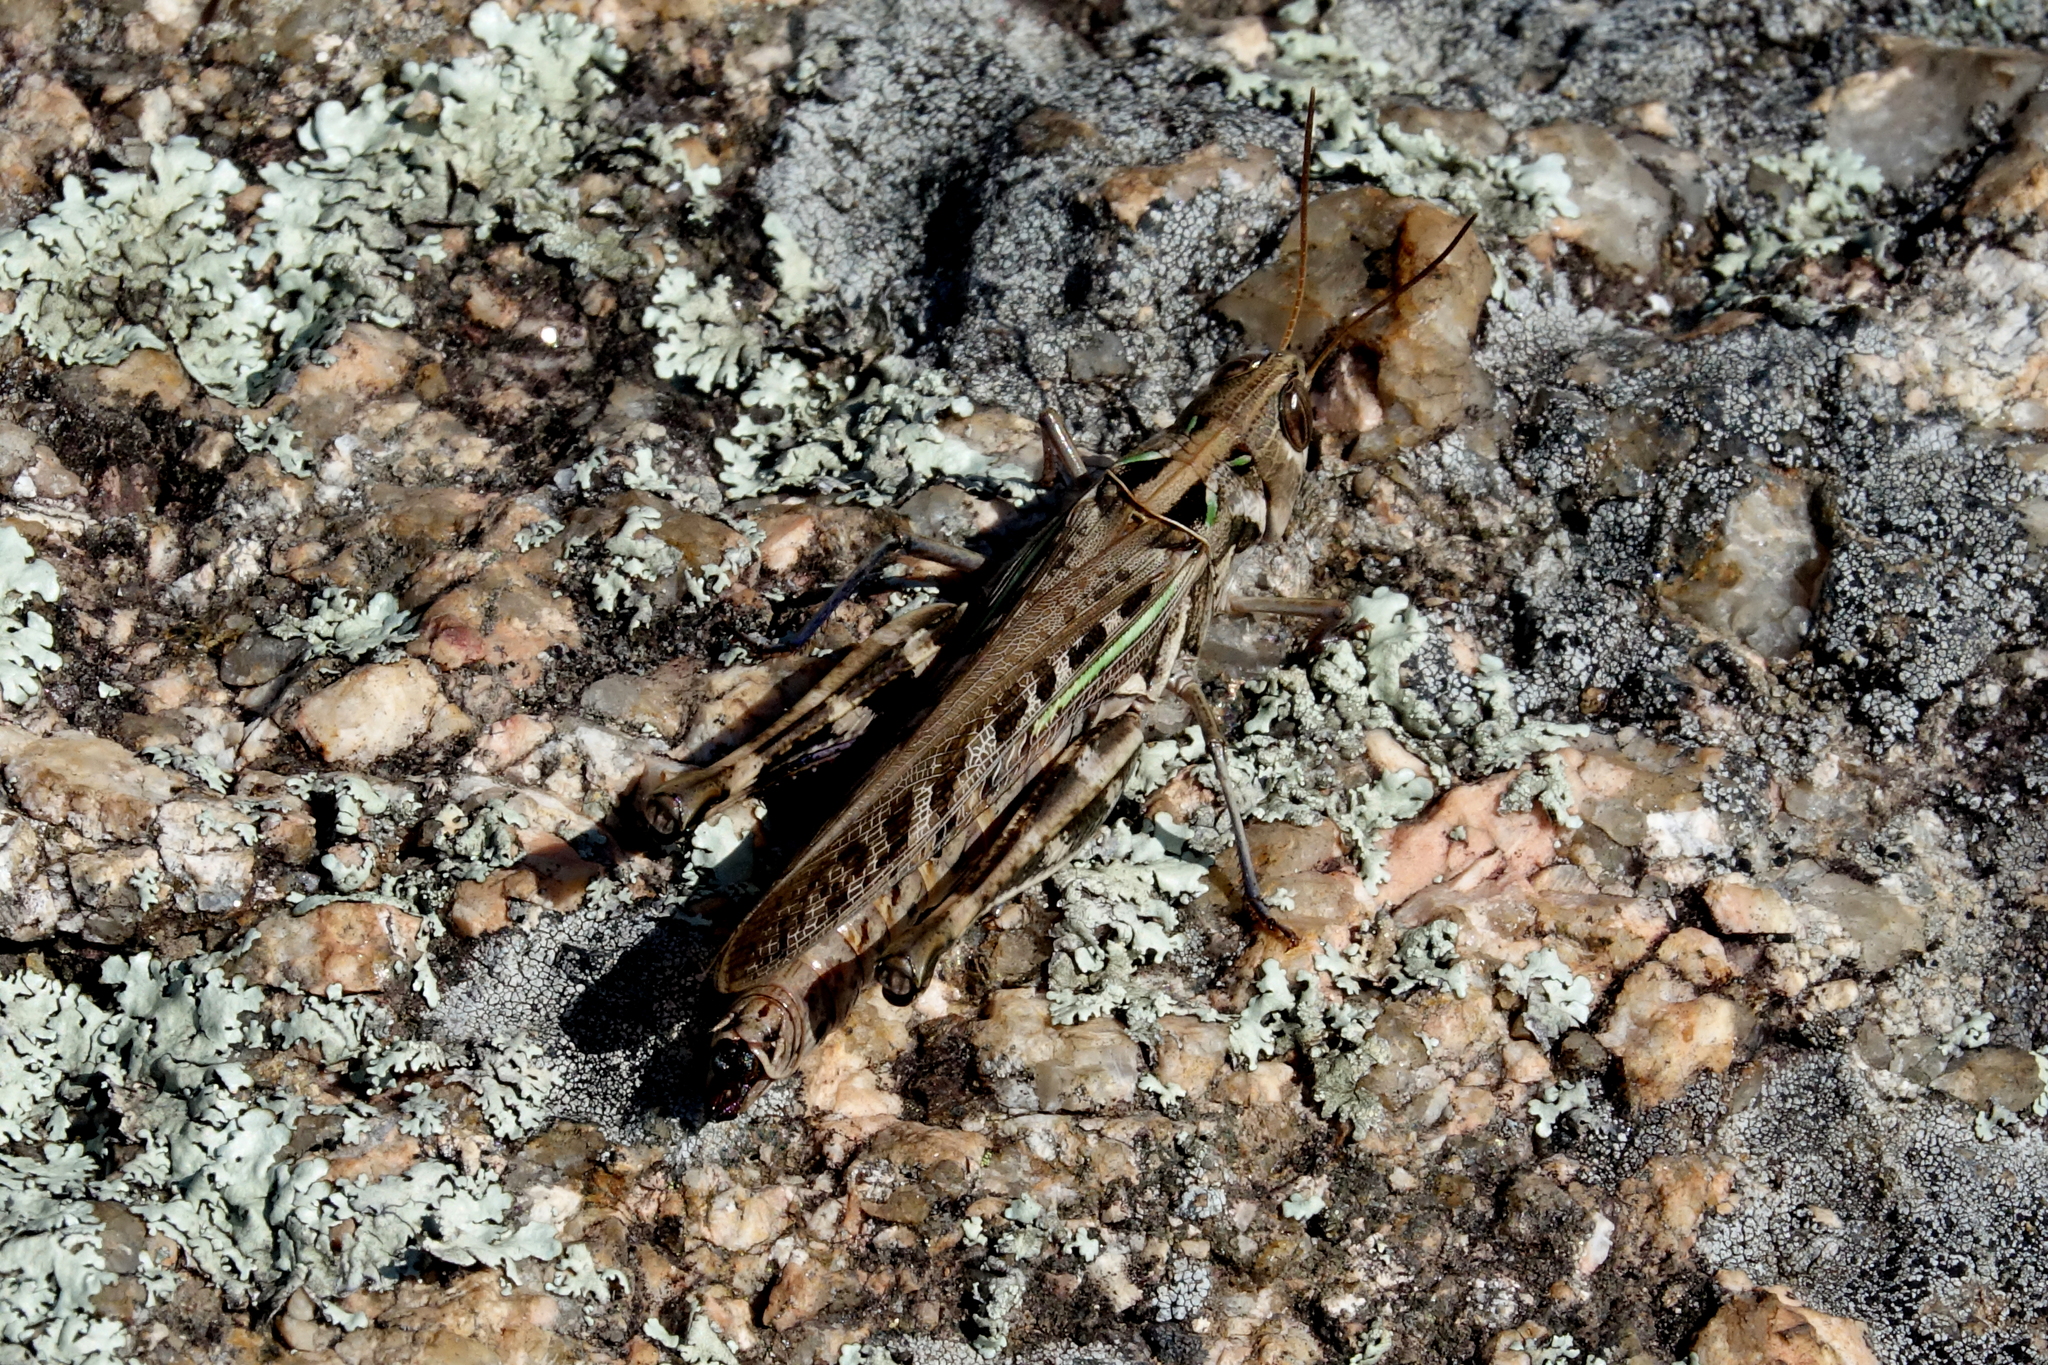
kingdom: Animalia
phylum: Arthropoda
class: Insecta
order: Orthoptera
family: Acrididae
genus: Rhammatocerus
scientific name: Rhammatocerus pictus
